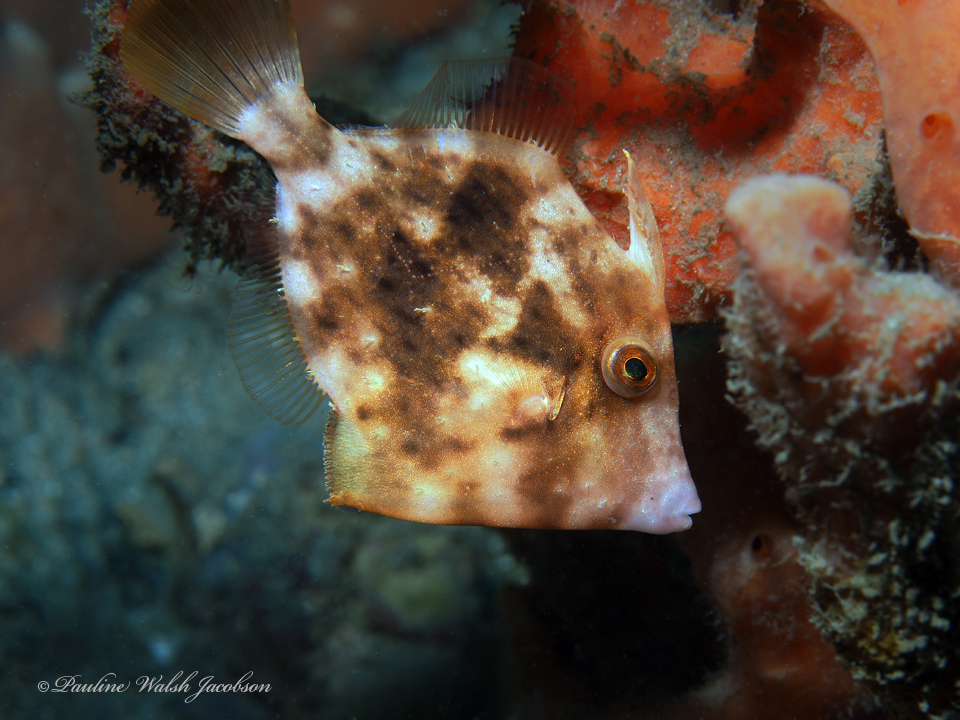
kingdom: Animalia
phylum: Chordata
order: Tetraodontiformes
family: Monacanthidae
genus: Stephanolepis
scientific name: Stephanolepis hispidus
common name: Planehead filefish
